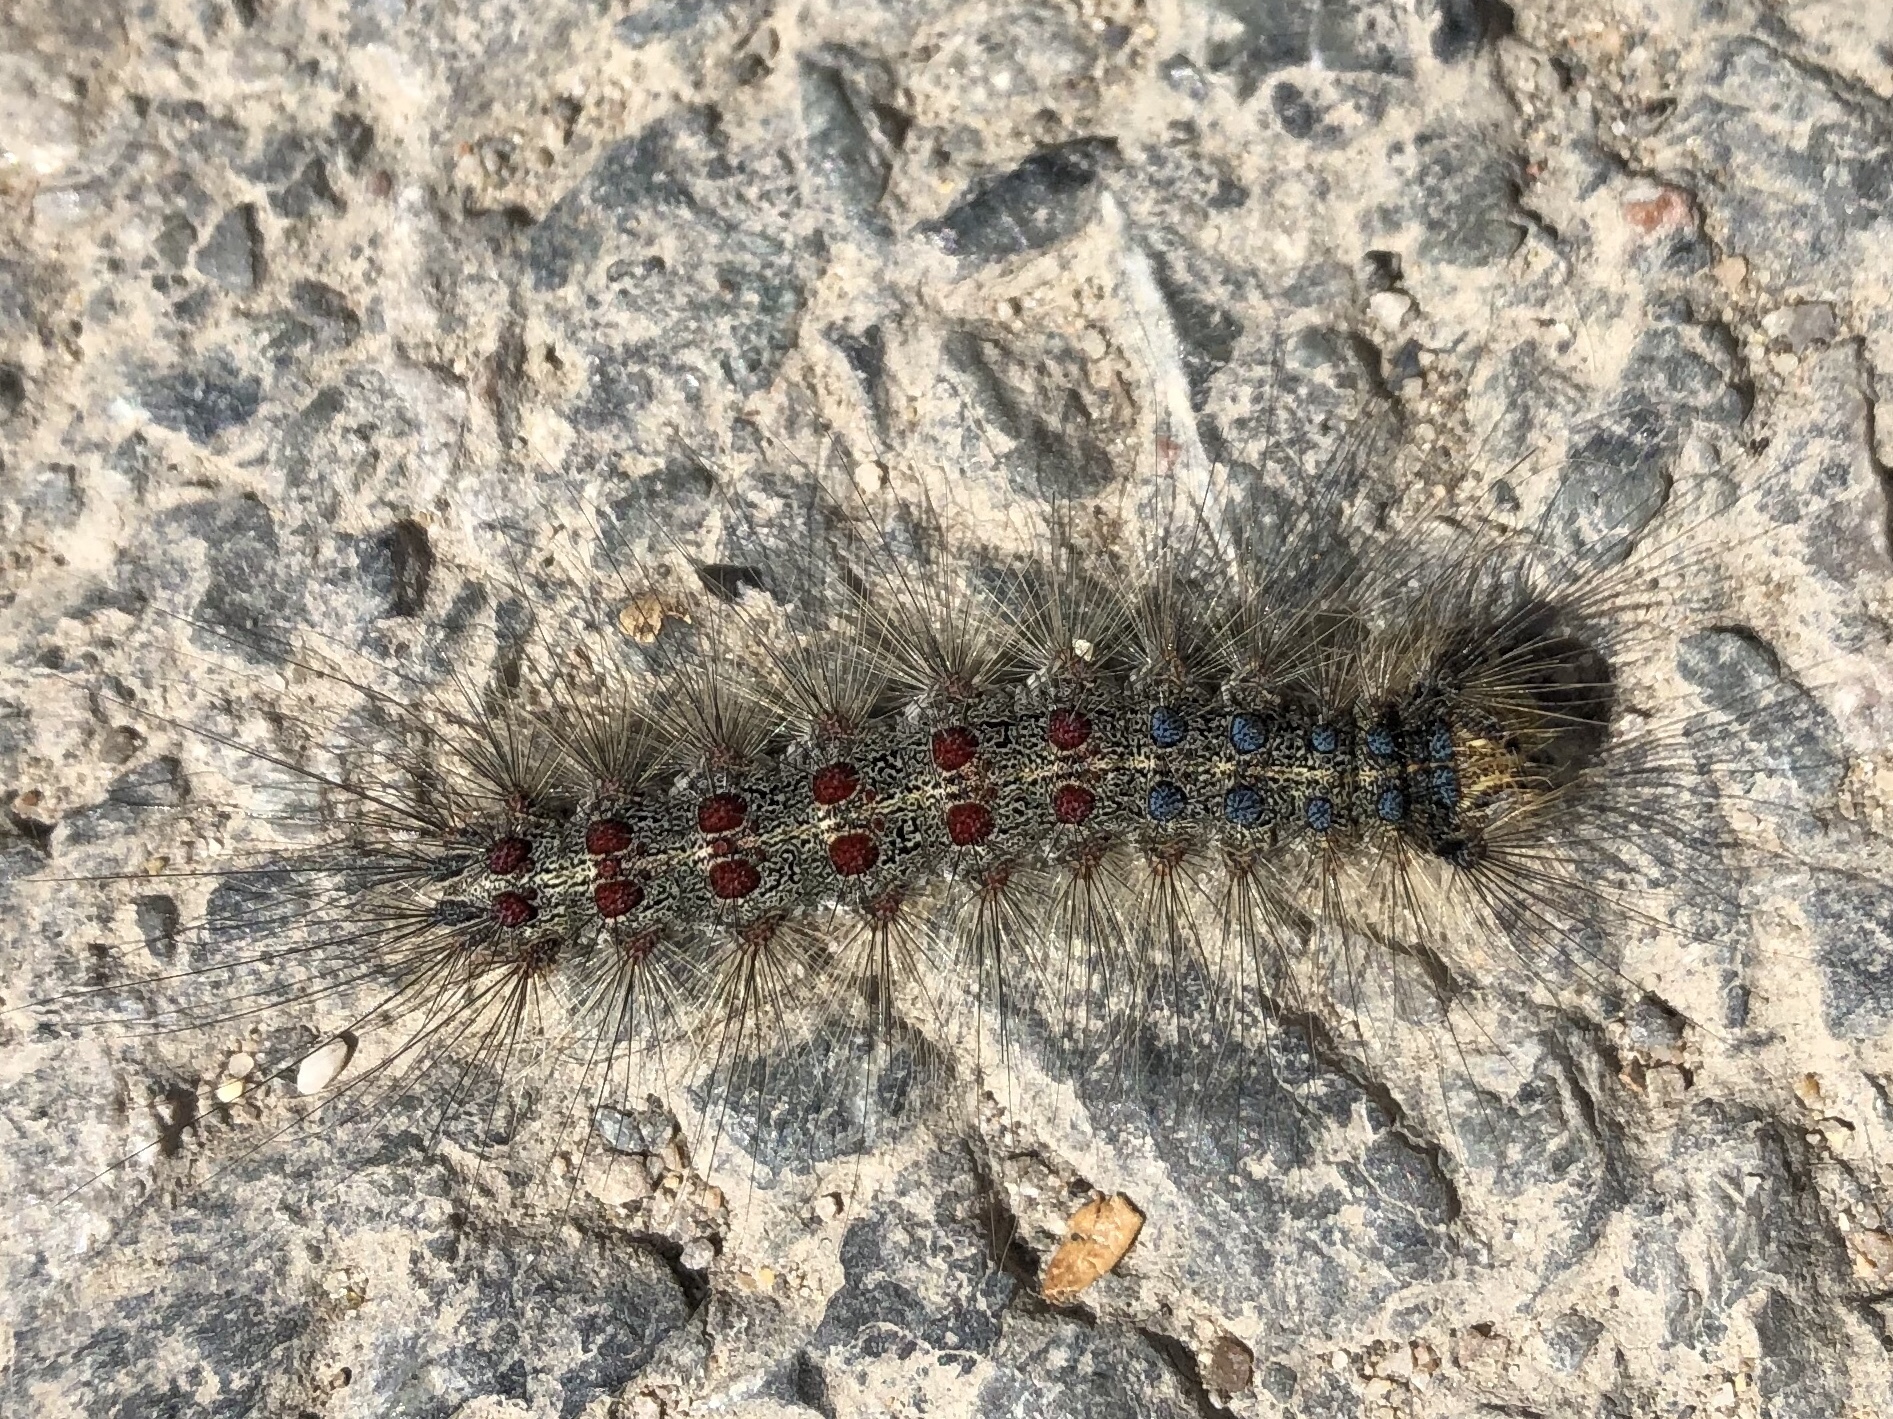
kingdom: Animalia
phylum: Arthropoda
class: Insecta
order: Lepidoptera
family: Erebidae
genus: Lymantria
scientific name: Lymantria dispar
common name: Gypsy moth
